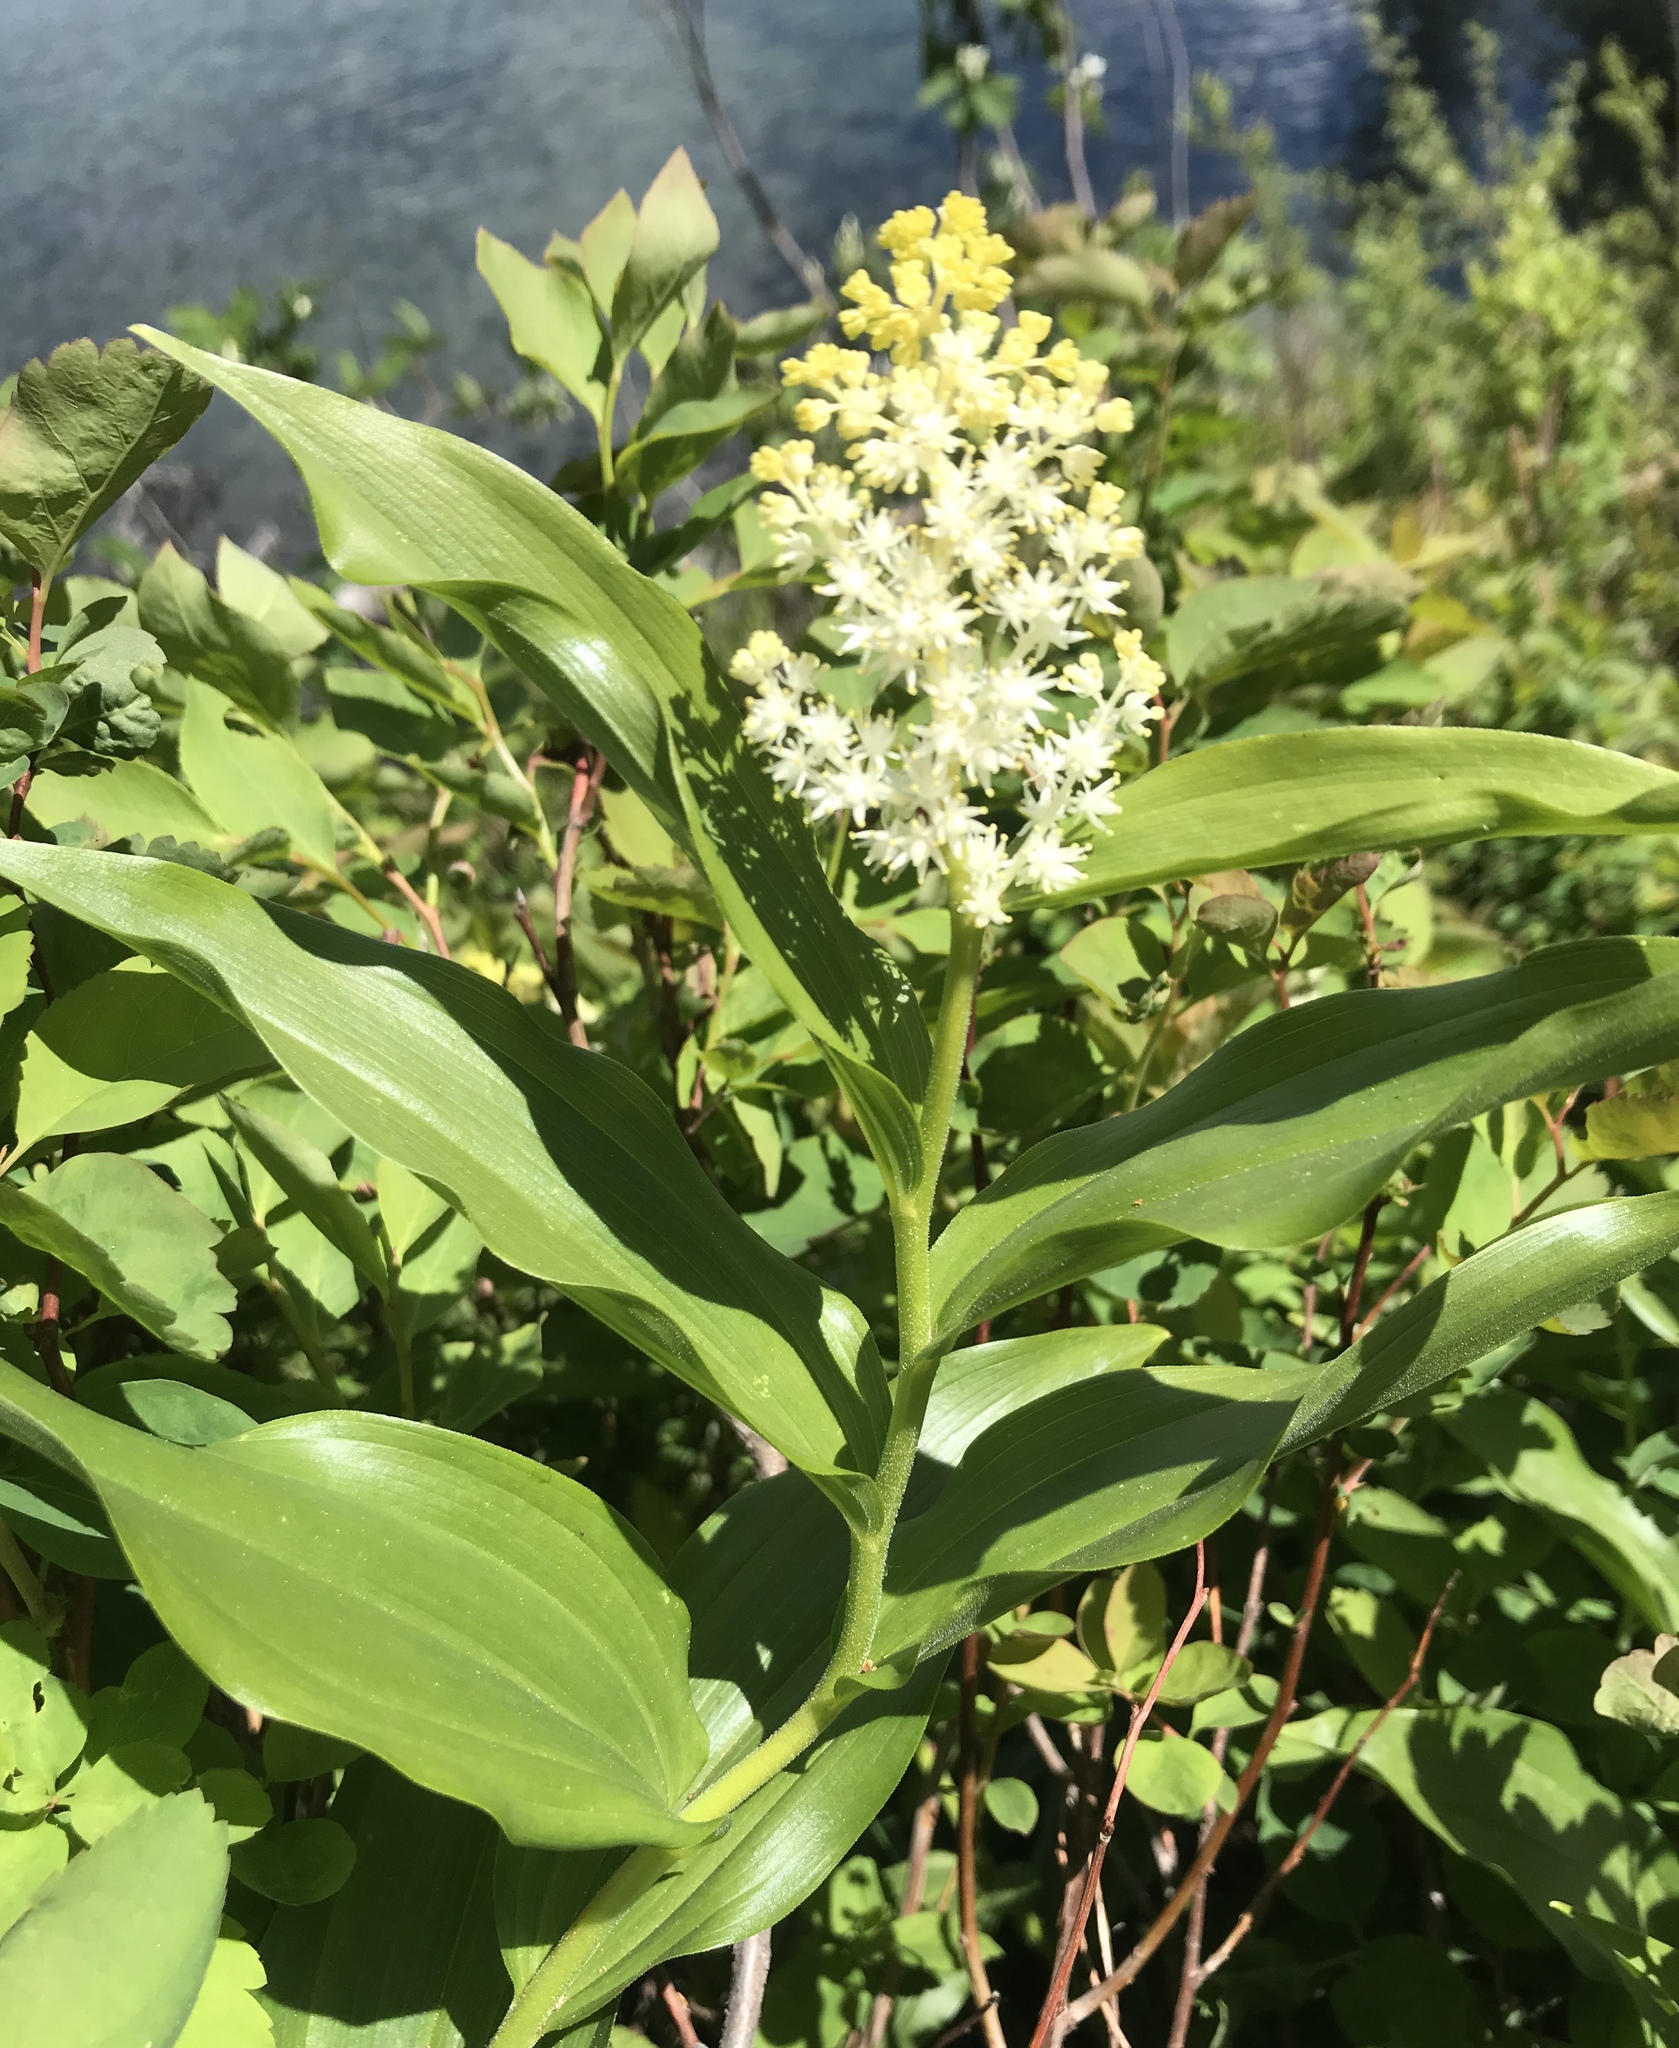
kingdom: Plantae
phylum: Tracheophyta
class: Liliopsida
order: Asparagales
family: Asparagaceae
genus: Maianthemum
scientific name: Maianthemum racemosum
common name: False spikenard
